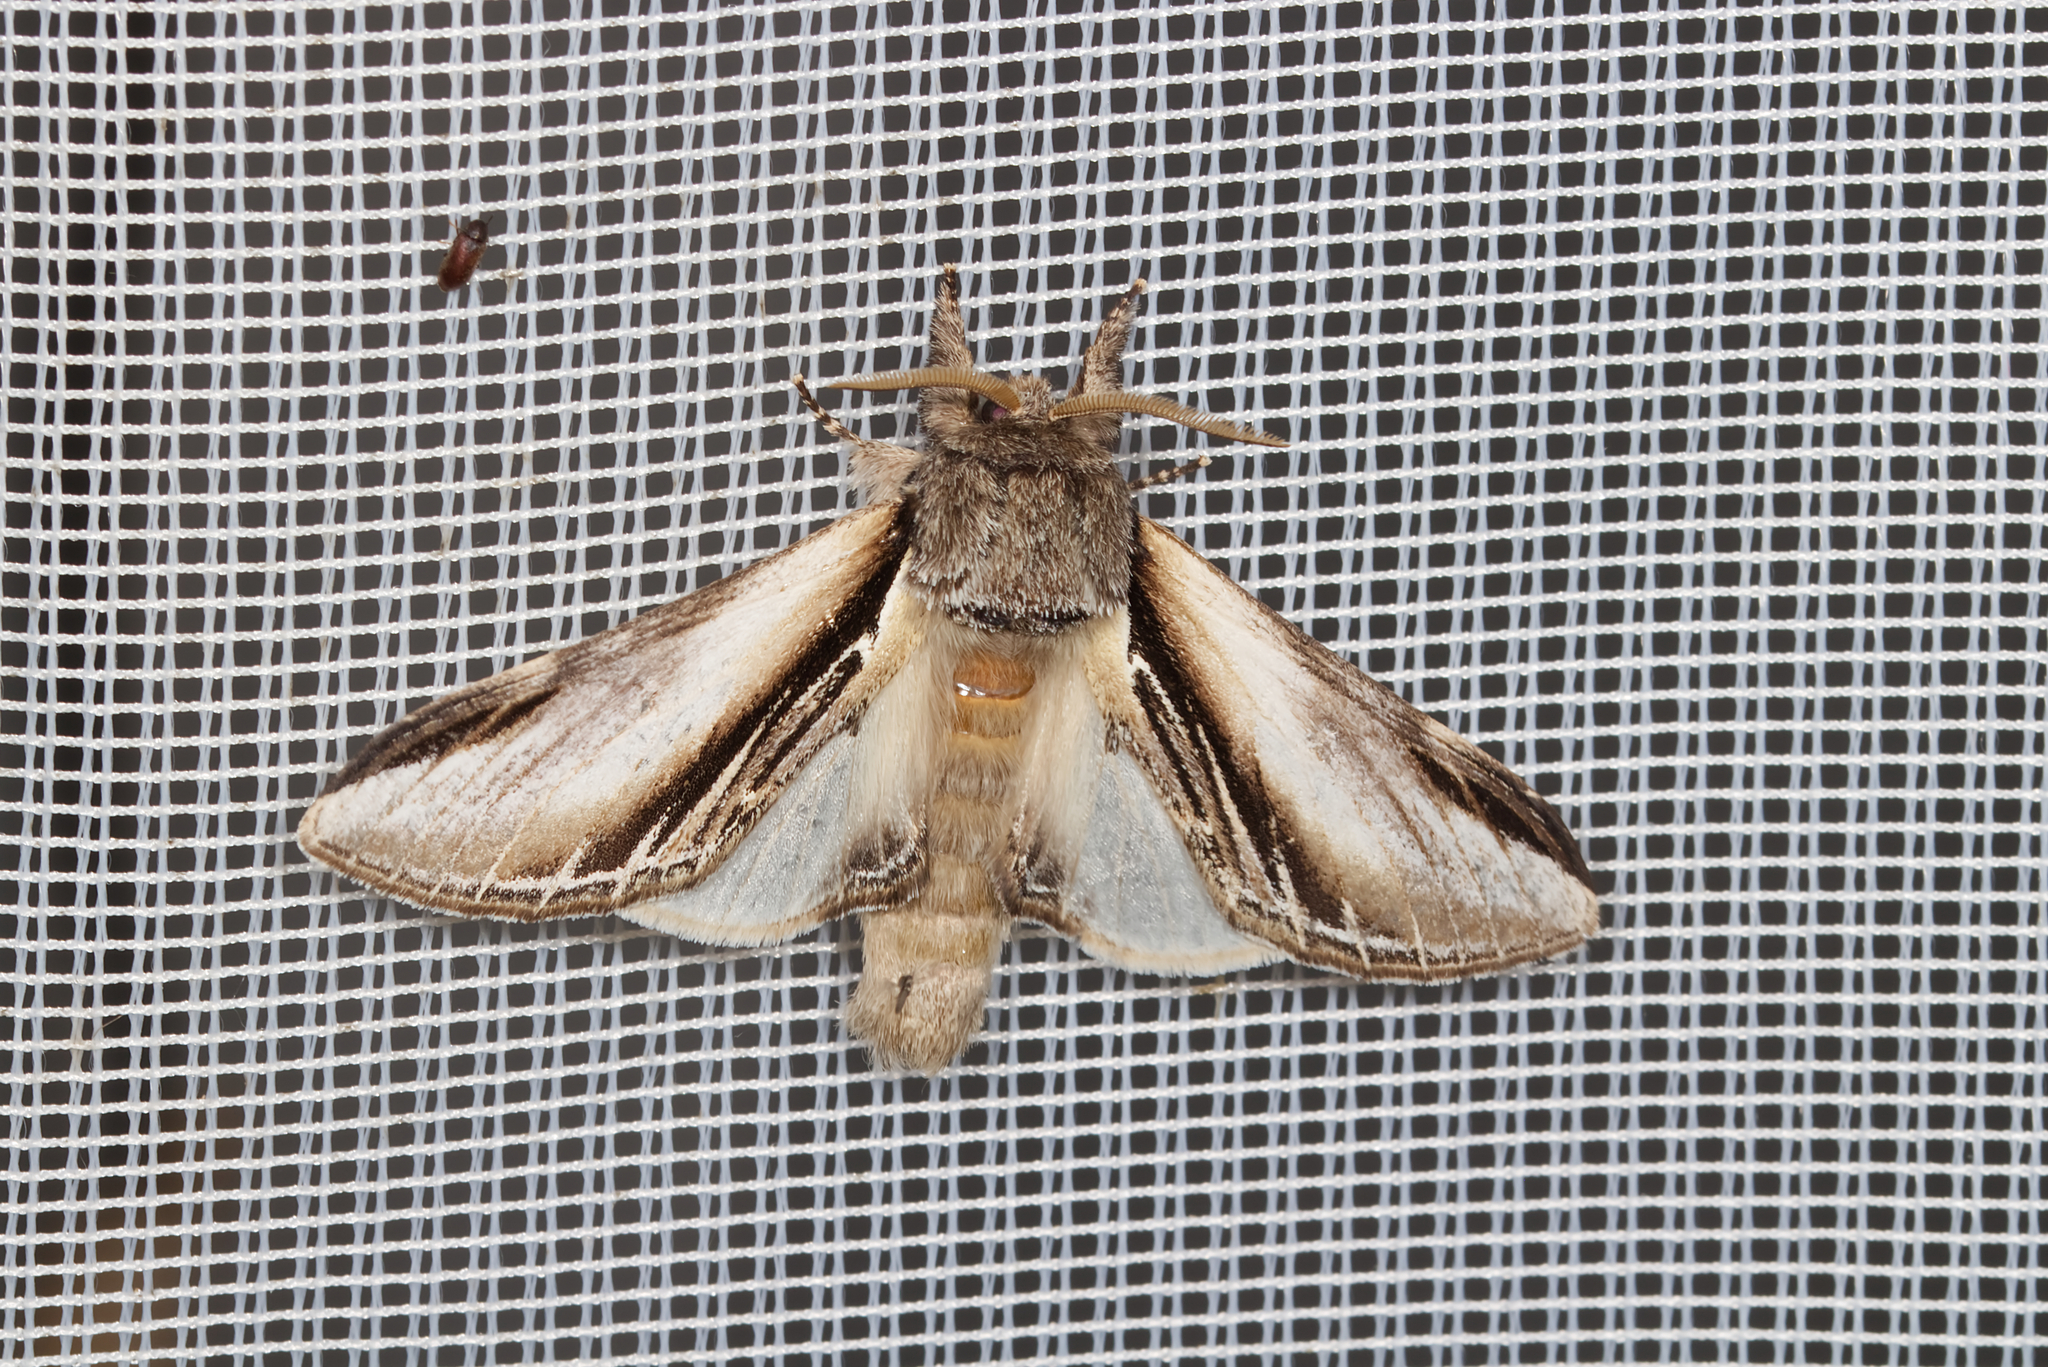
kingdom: Animalia
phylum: Arthropoda
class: Insecta
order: Lepidoptera
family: Notodontidae
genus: Pheosia
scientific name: Pheosia tremula
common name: Swallow prominent
